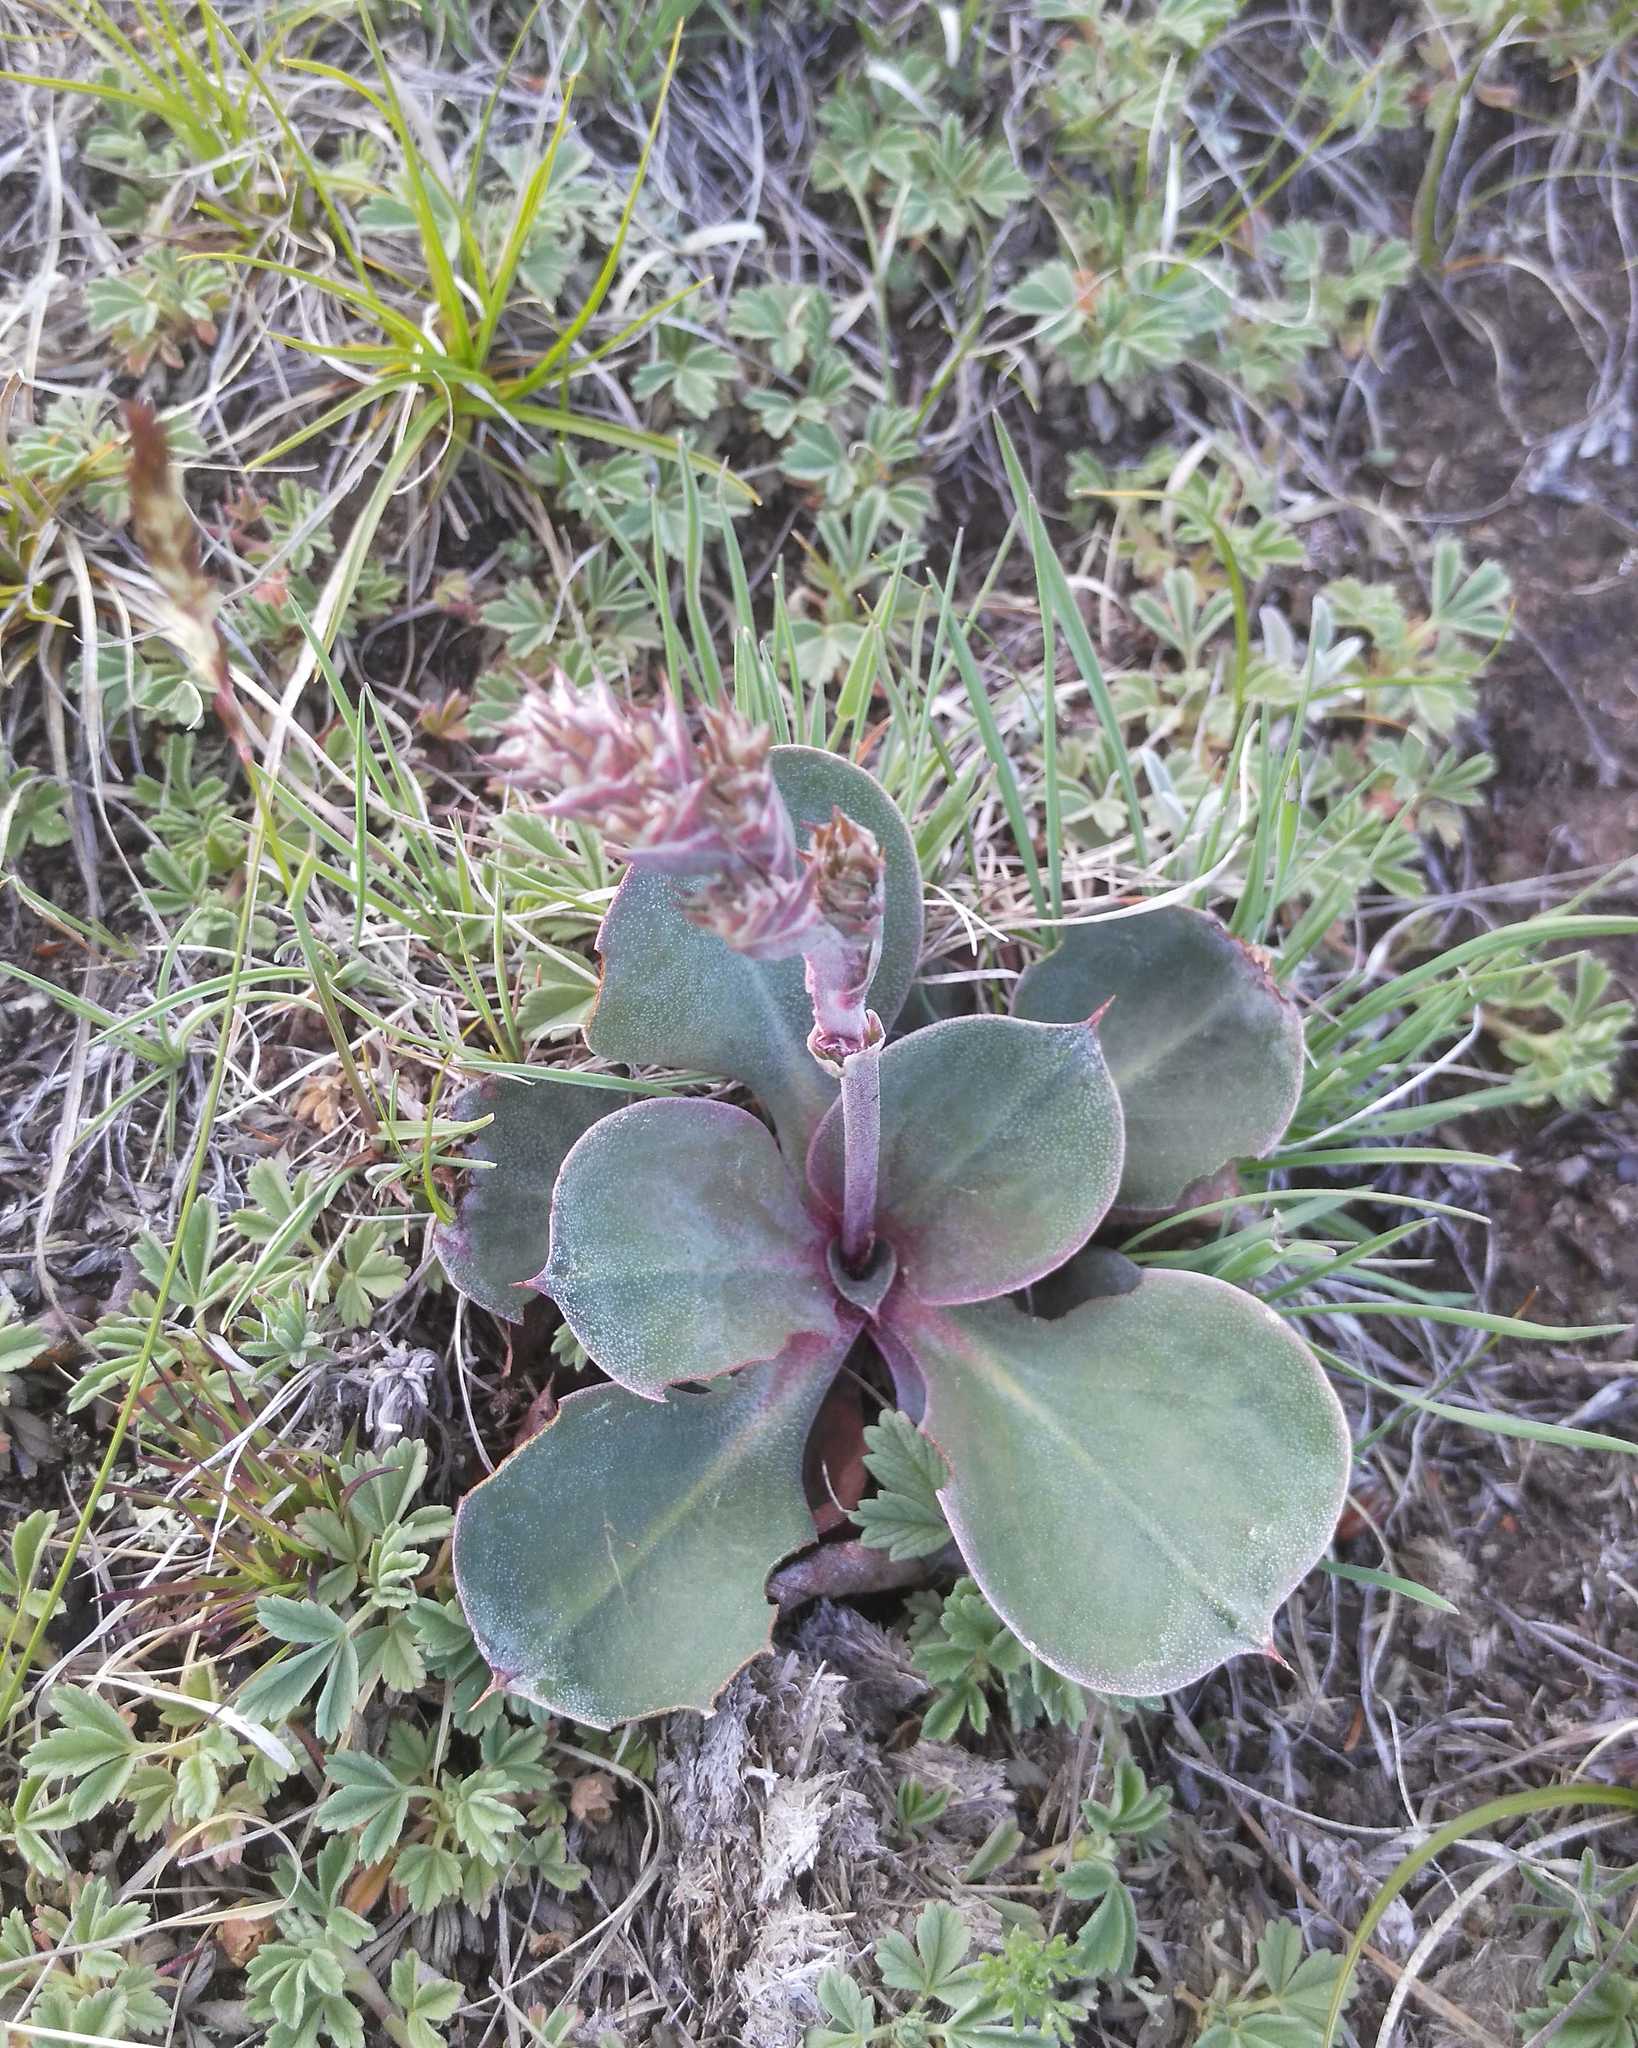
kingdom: Plantae
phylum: Tracheophyta
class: Magnoliopsida
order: Caryophyllales
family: Plumbaginaceae
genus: Goniolimon
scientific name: Goniolimon speciosum
